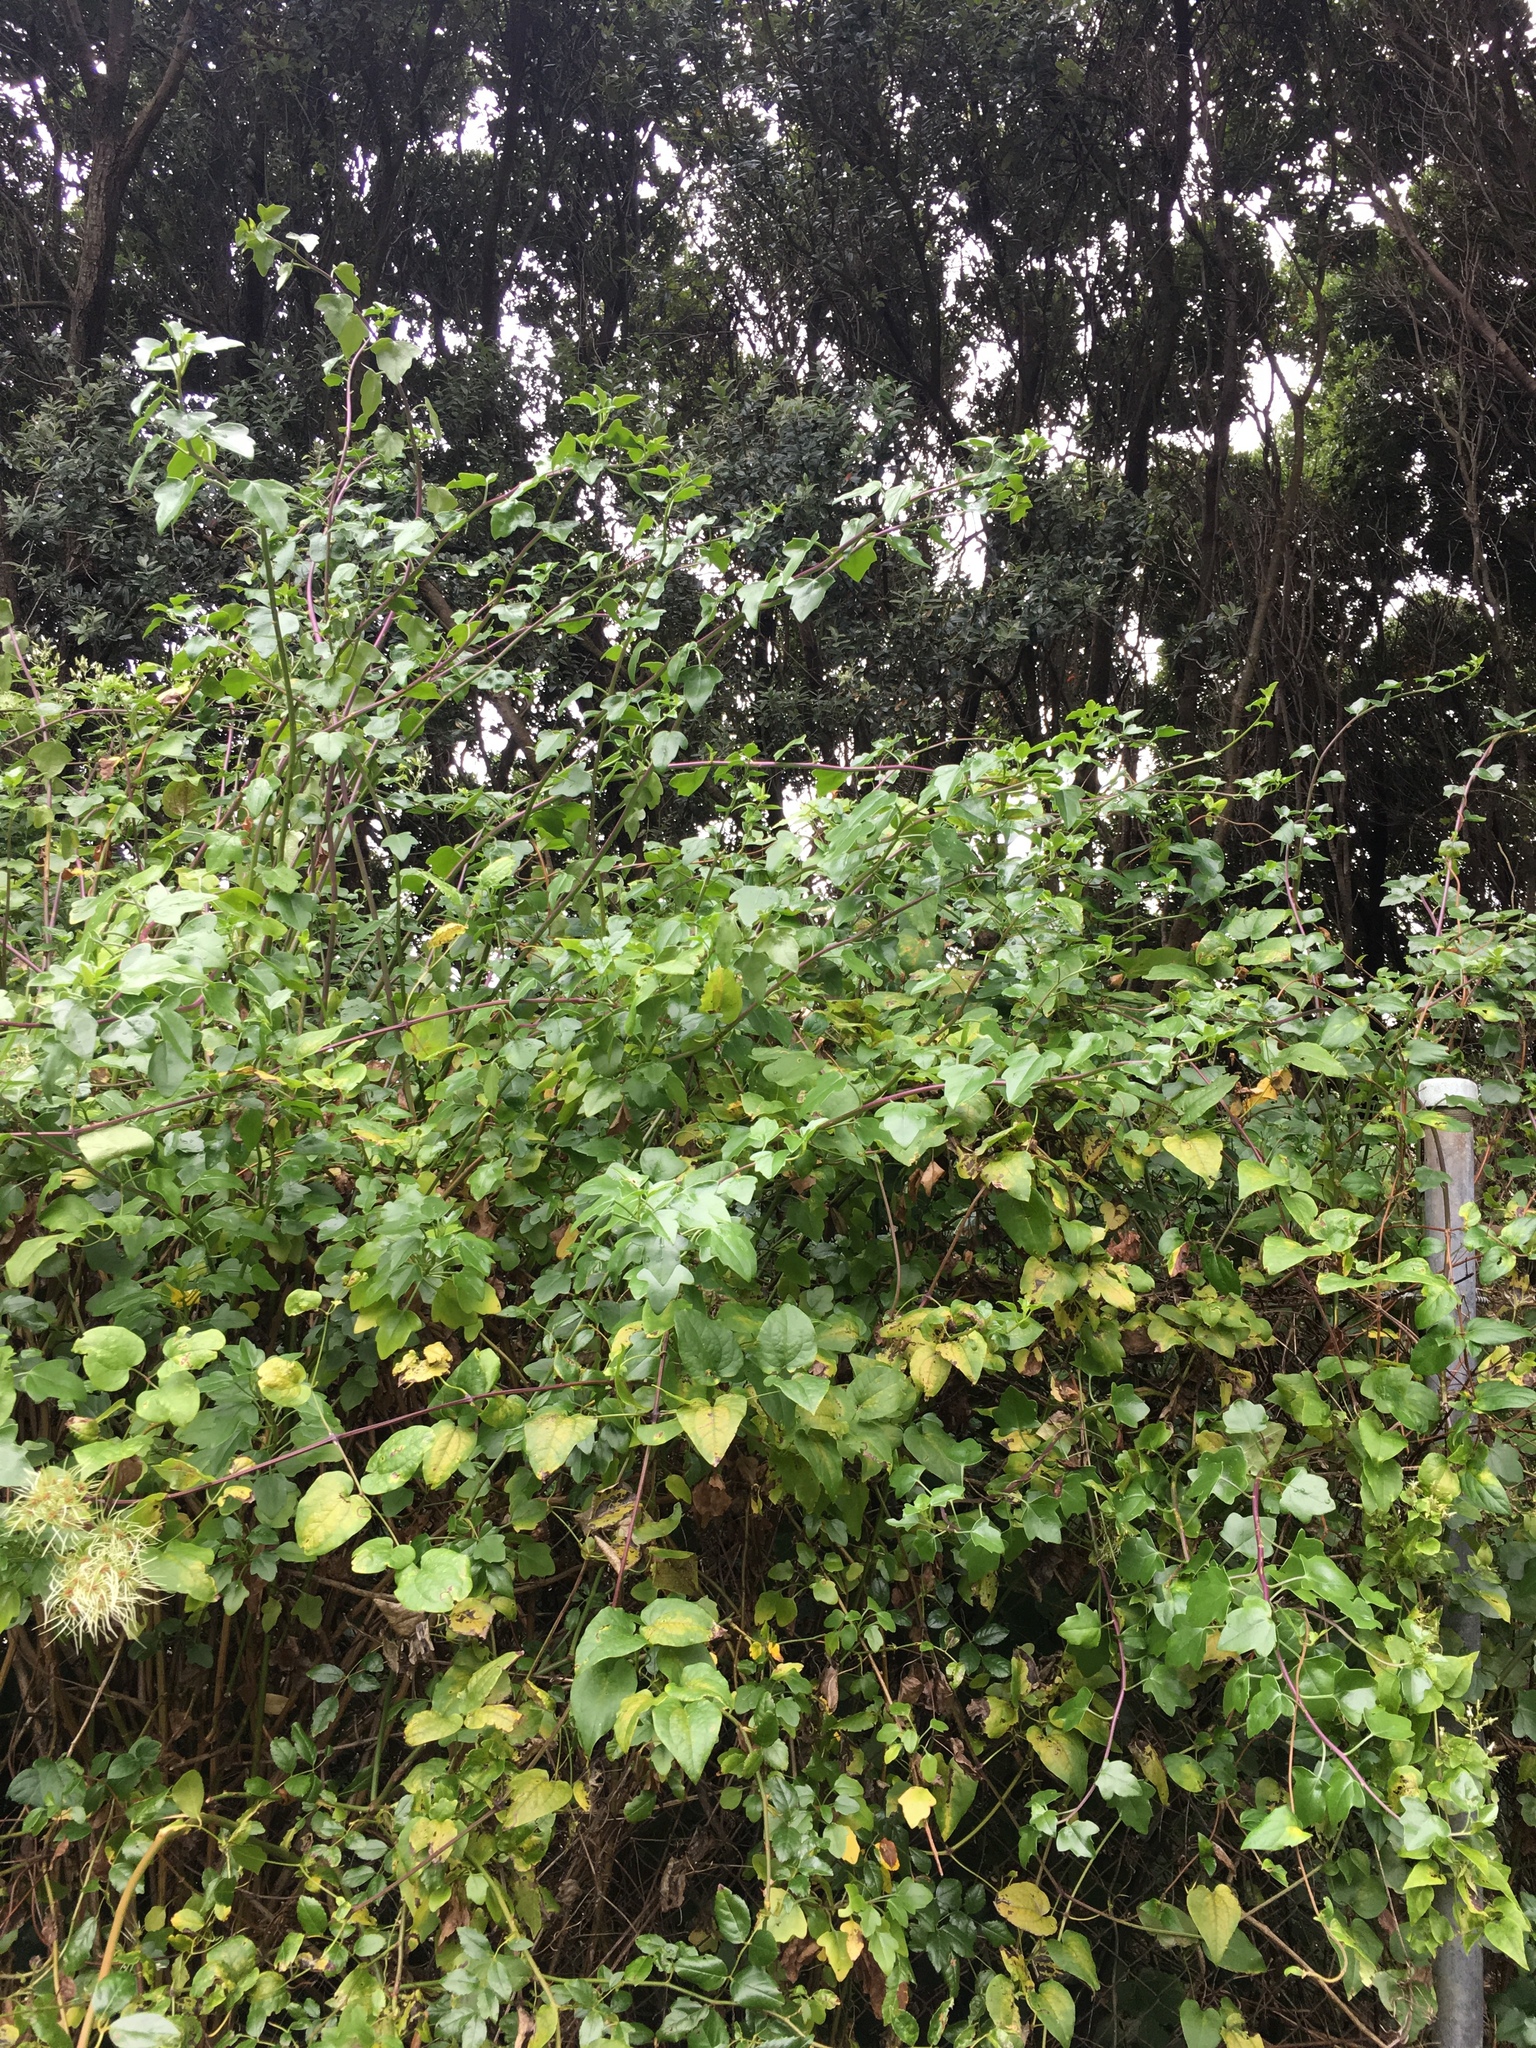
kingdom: Plantae
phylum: Tracheophyta
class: Magnoliopsida
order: Asterales
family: Asteraceae
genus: Senecio
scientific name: Senecio angulatus
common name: Climbing groundsel
